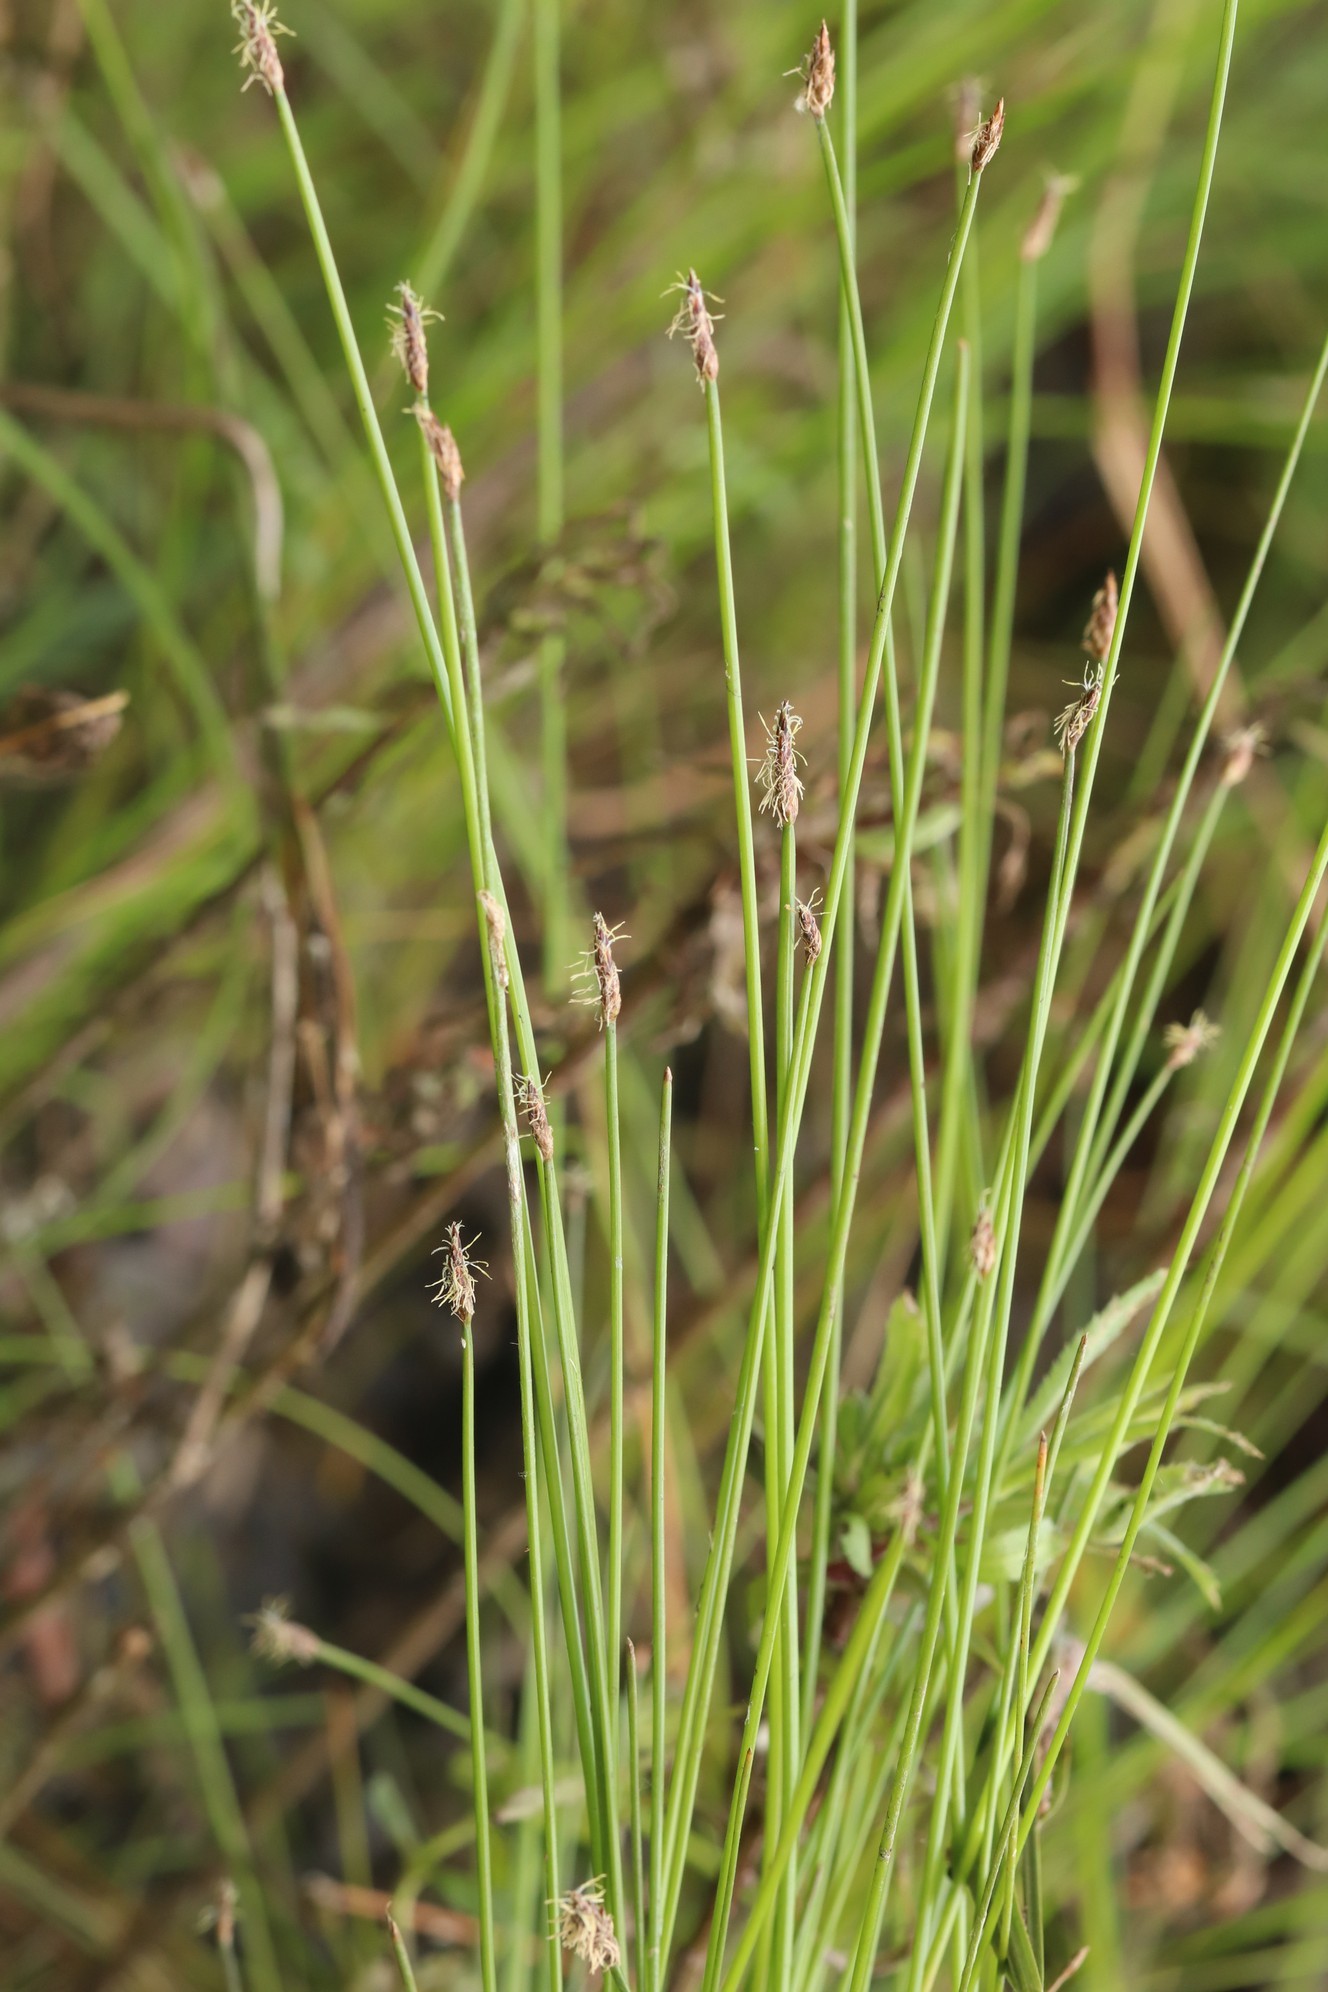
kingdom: Plantae
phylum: Tracheophyta
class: Liliopsida
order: Poales
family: Cyperaceae
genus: Eleocharis
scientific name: Eleocharis palustris
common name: Common spike-rush
